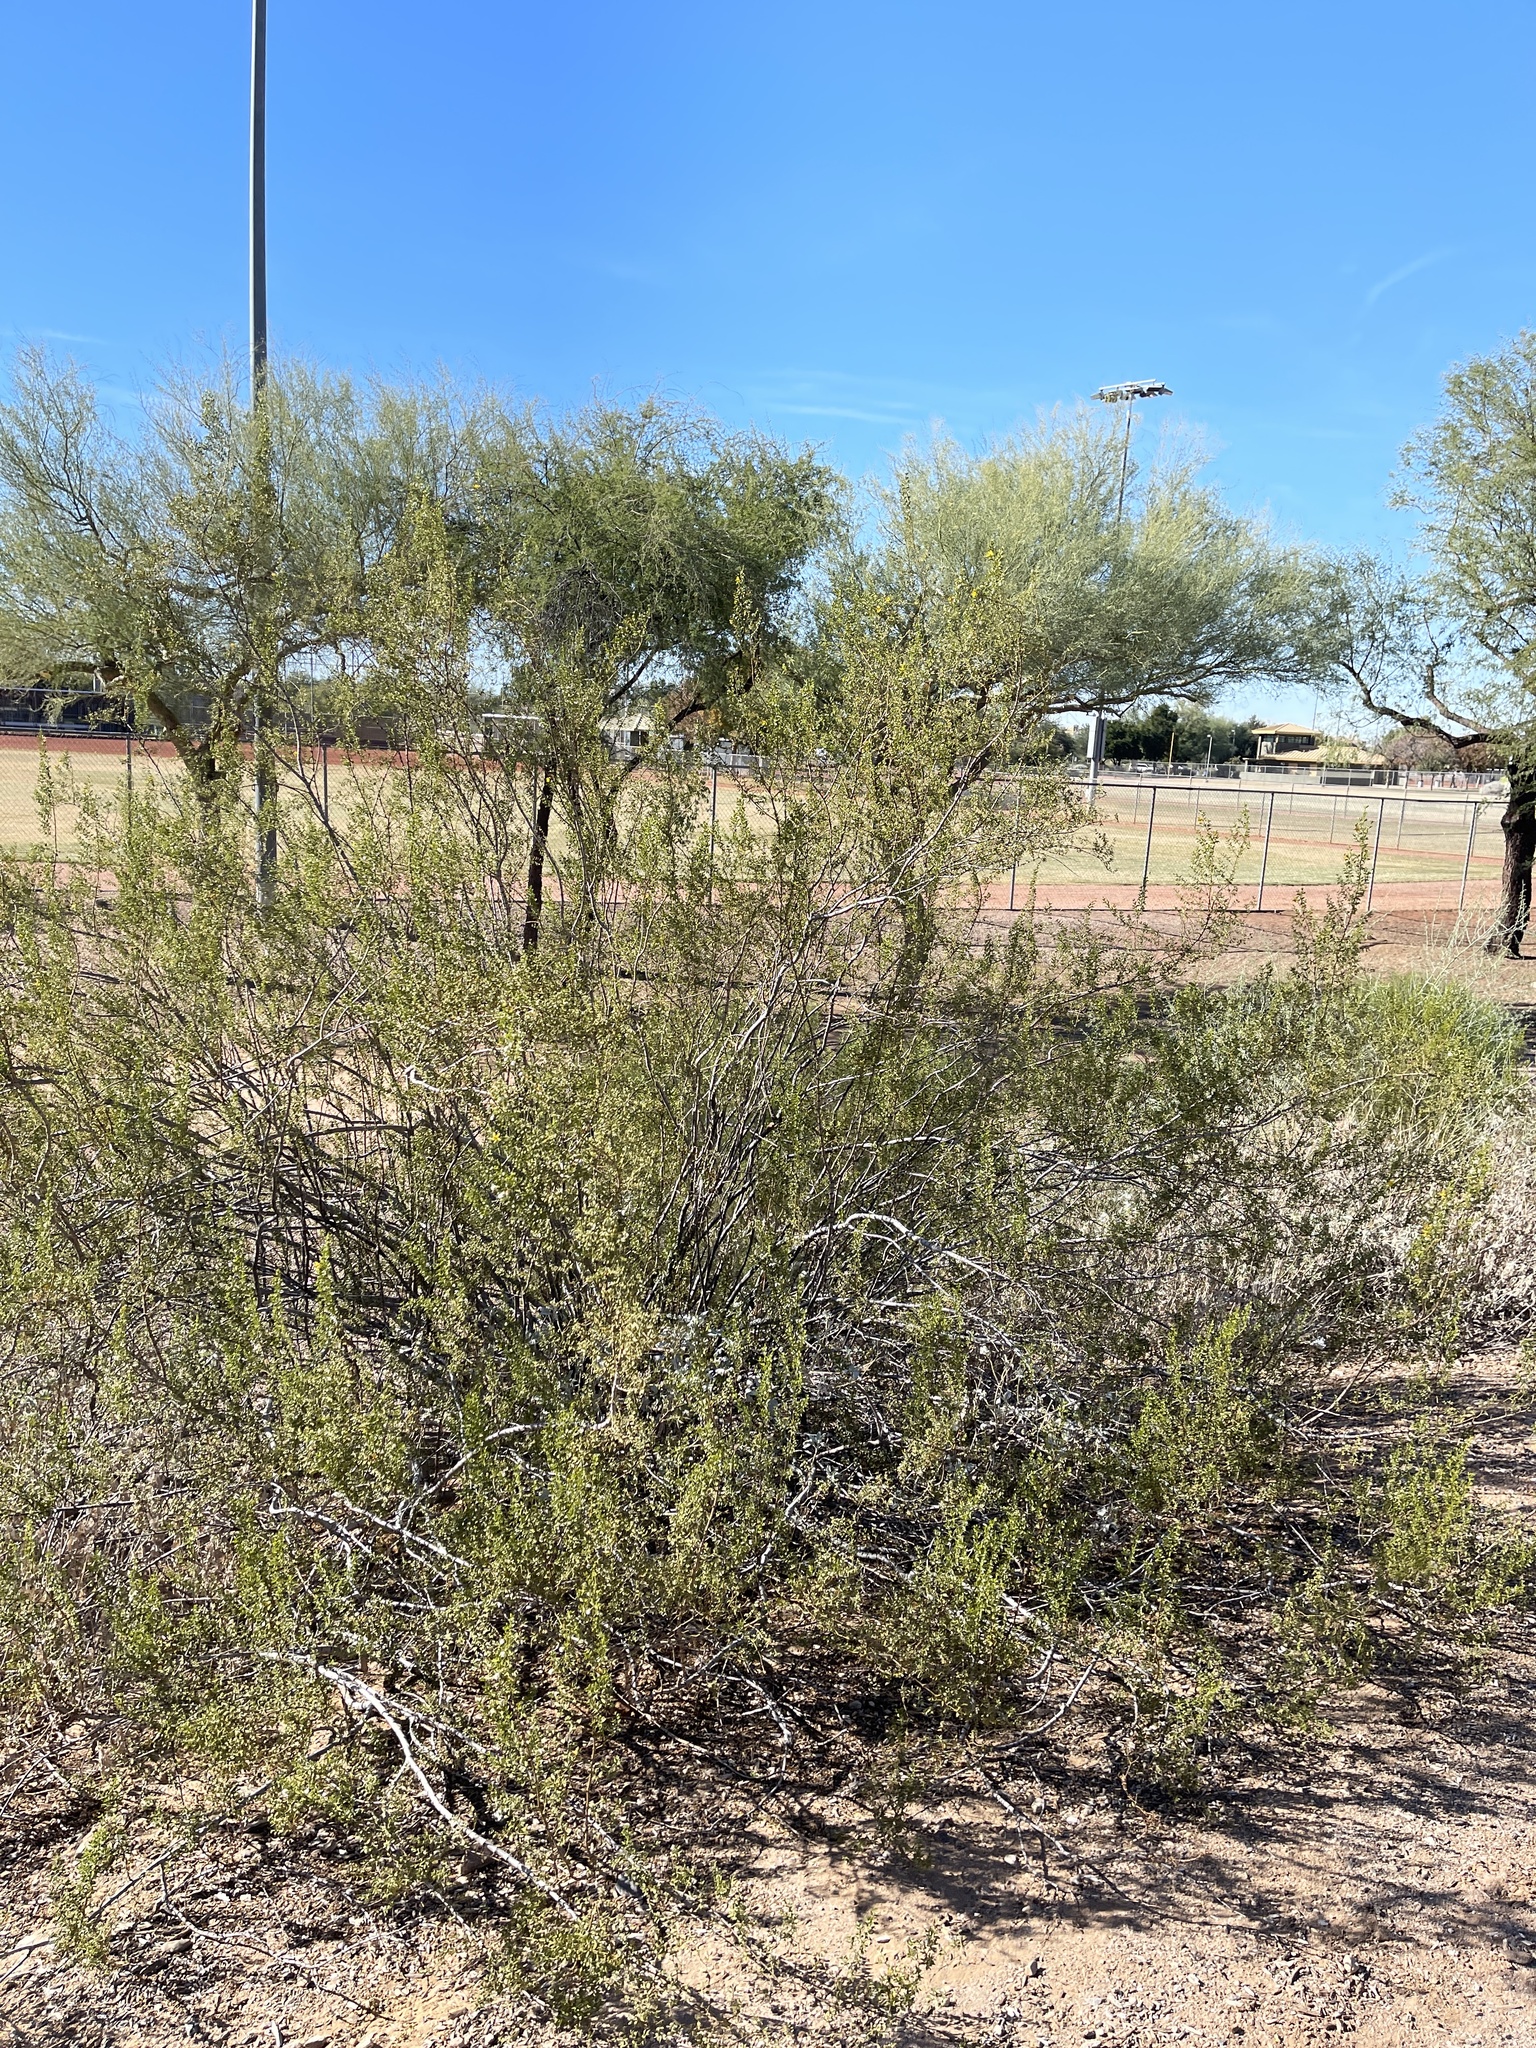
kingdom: Plantae
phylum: Tracheophyta
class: Magnoliopsida
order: Zygophyllales
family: Zygophyllaceae
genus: Larrea
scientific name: Larrea tridentata
